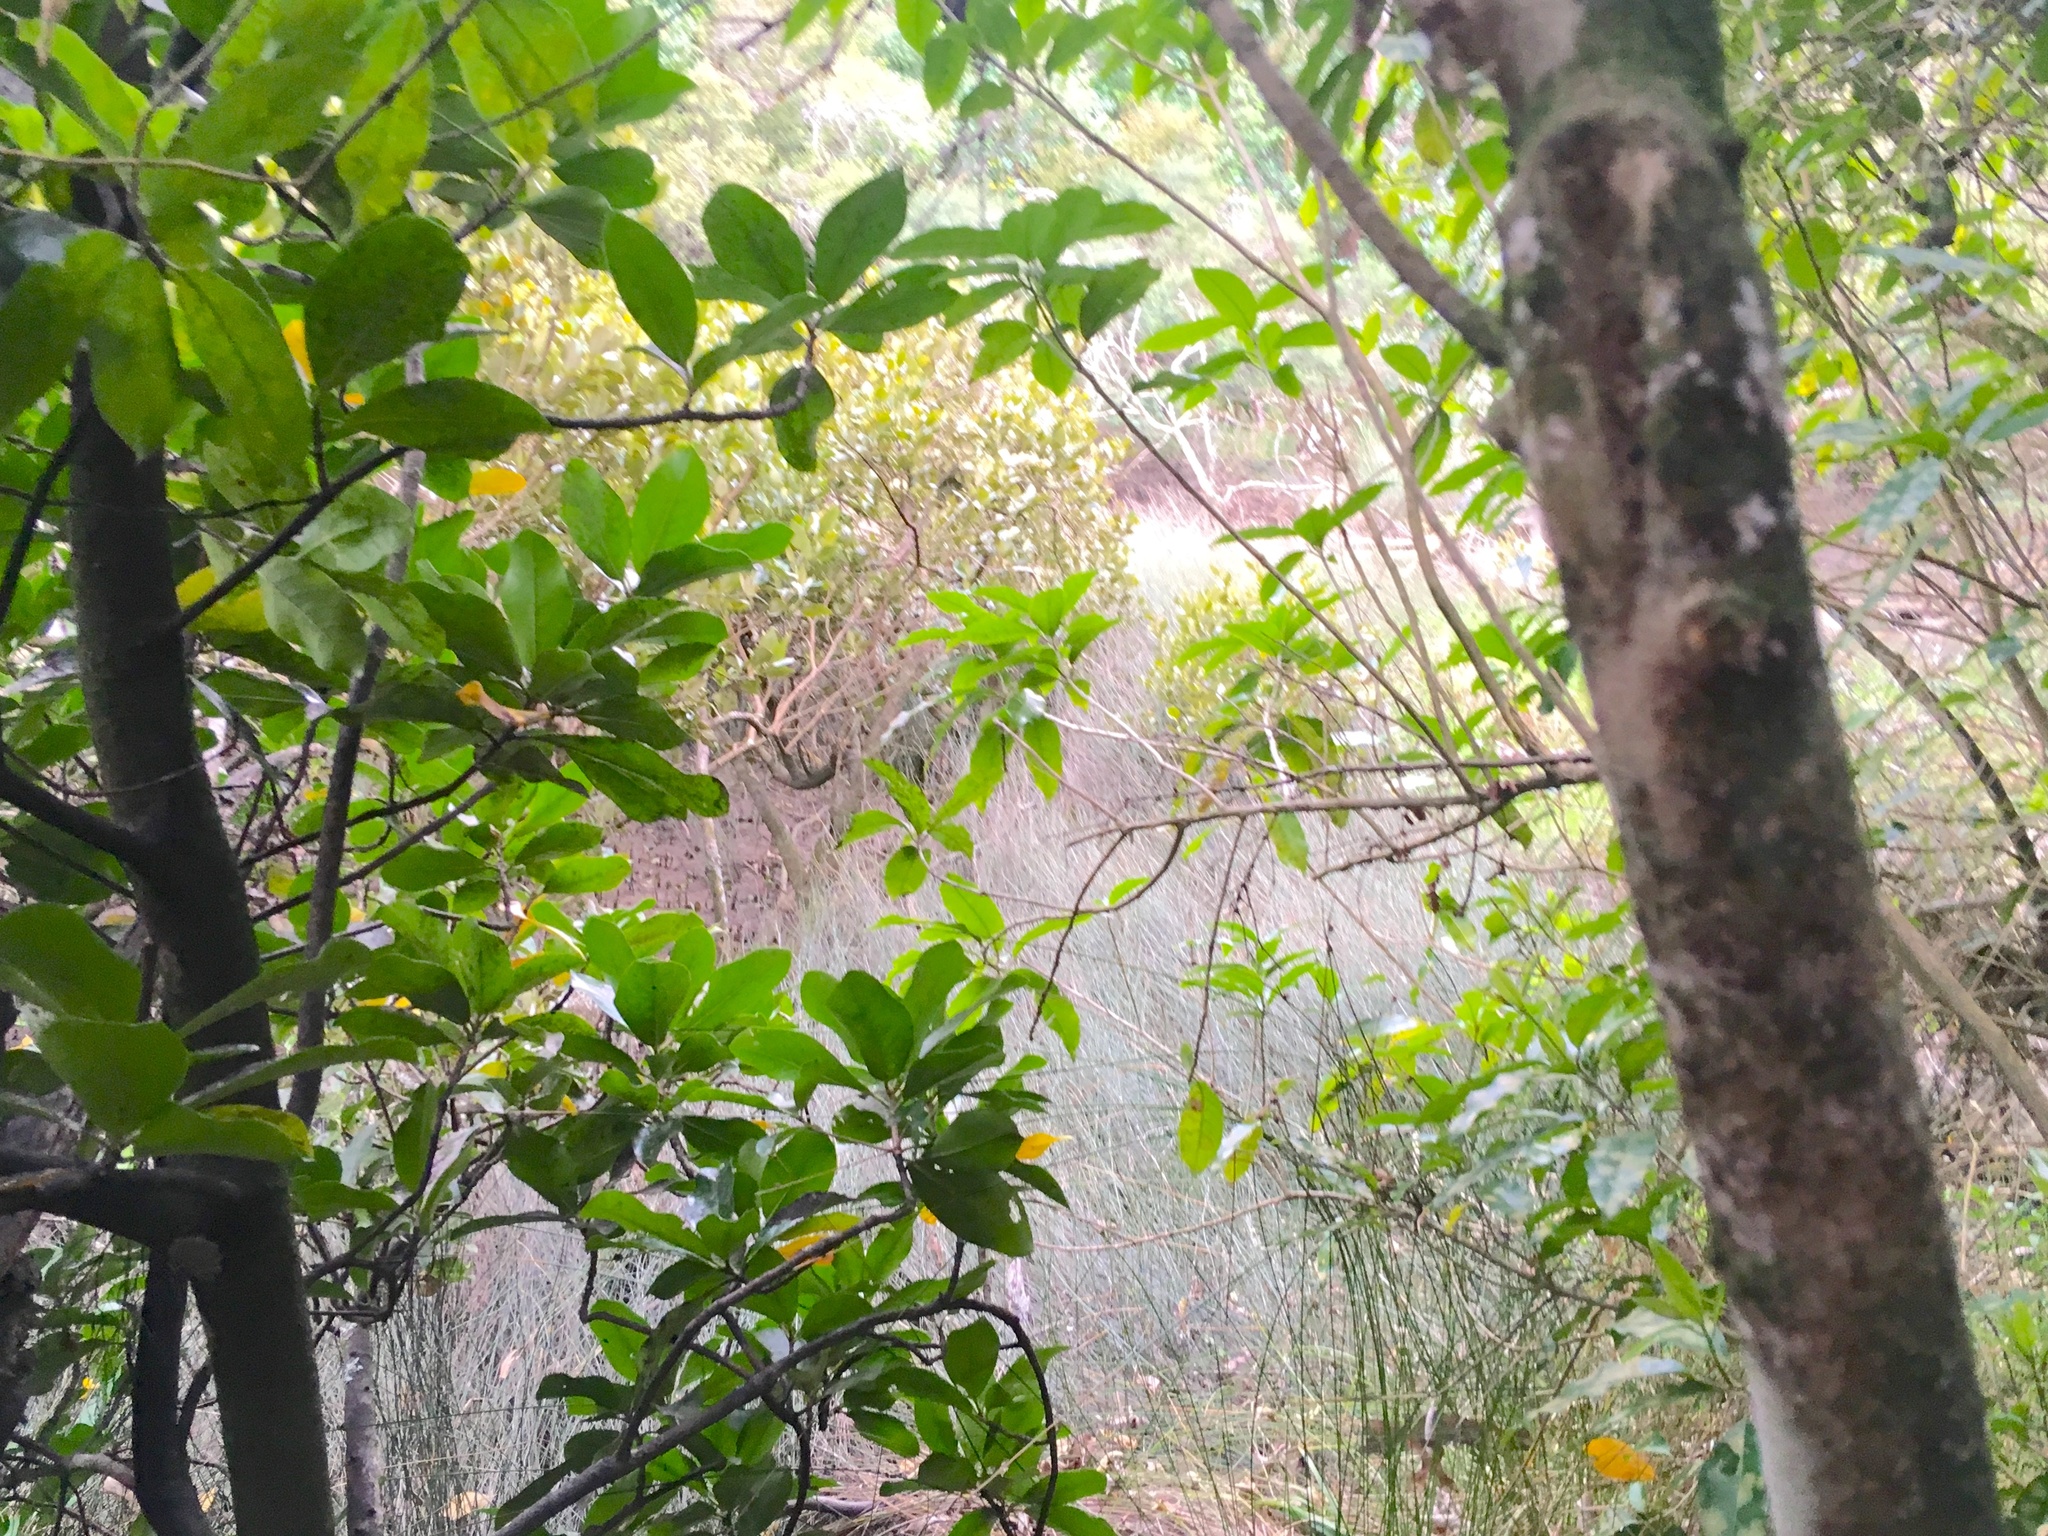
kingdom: Plantae
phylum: Tracheophyta
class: Magnoliopsida
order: Cucurbitales
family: Corynocarpaceae
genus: Corynocarpus
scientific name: Corynocarpus laevigatus
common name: New zealand laurel
